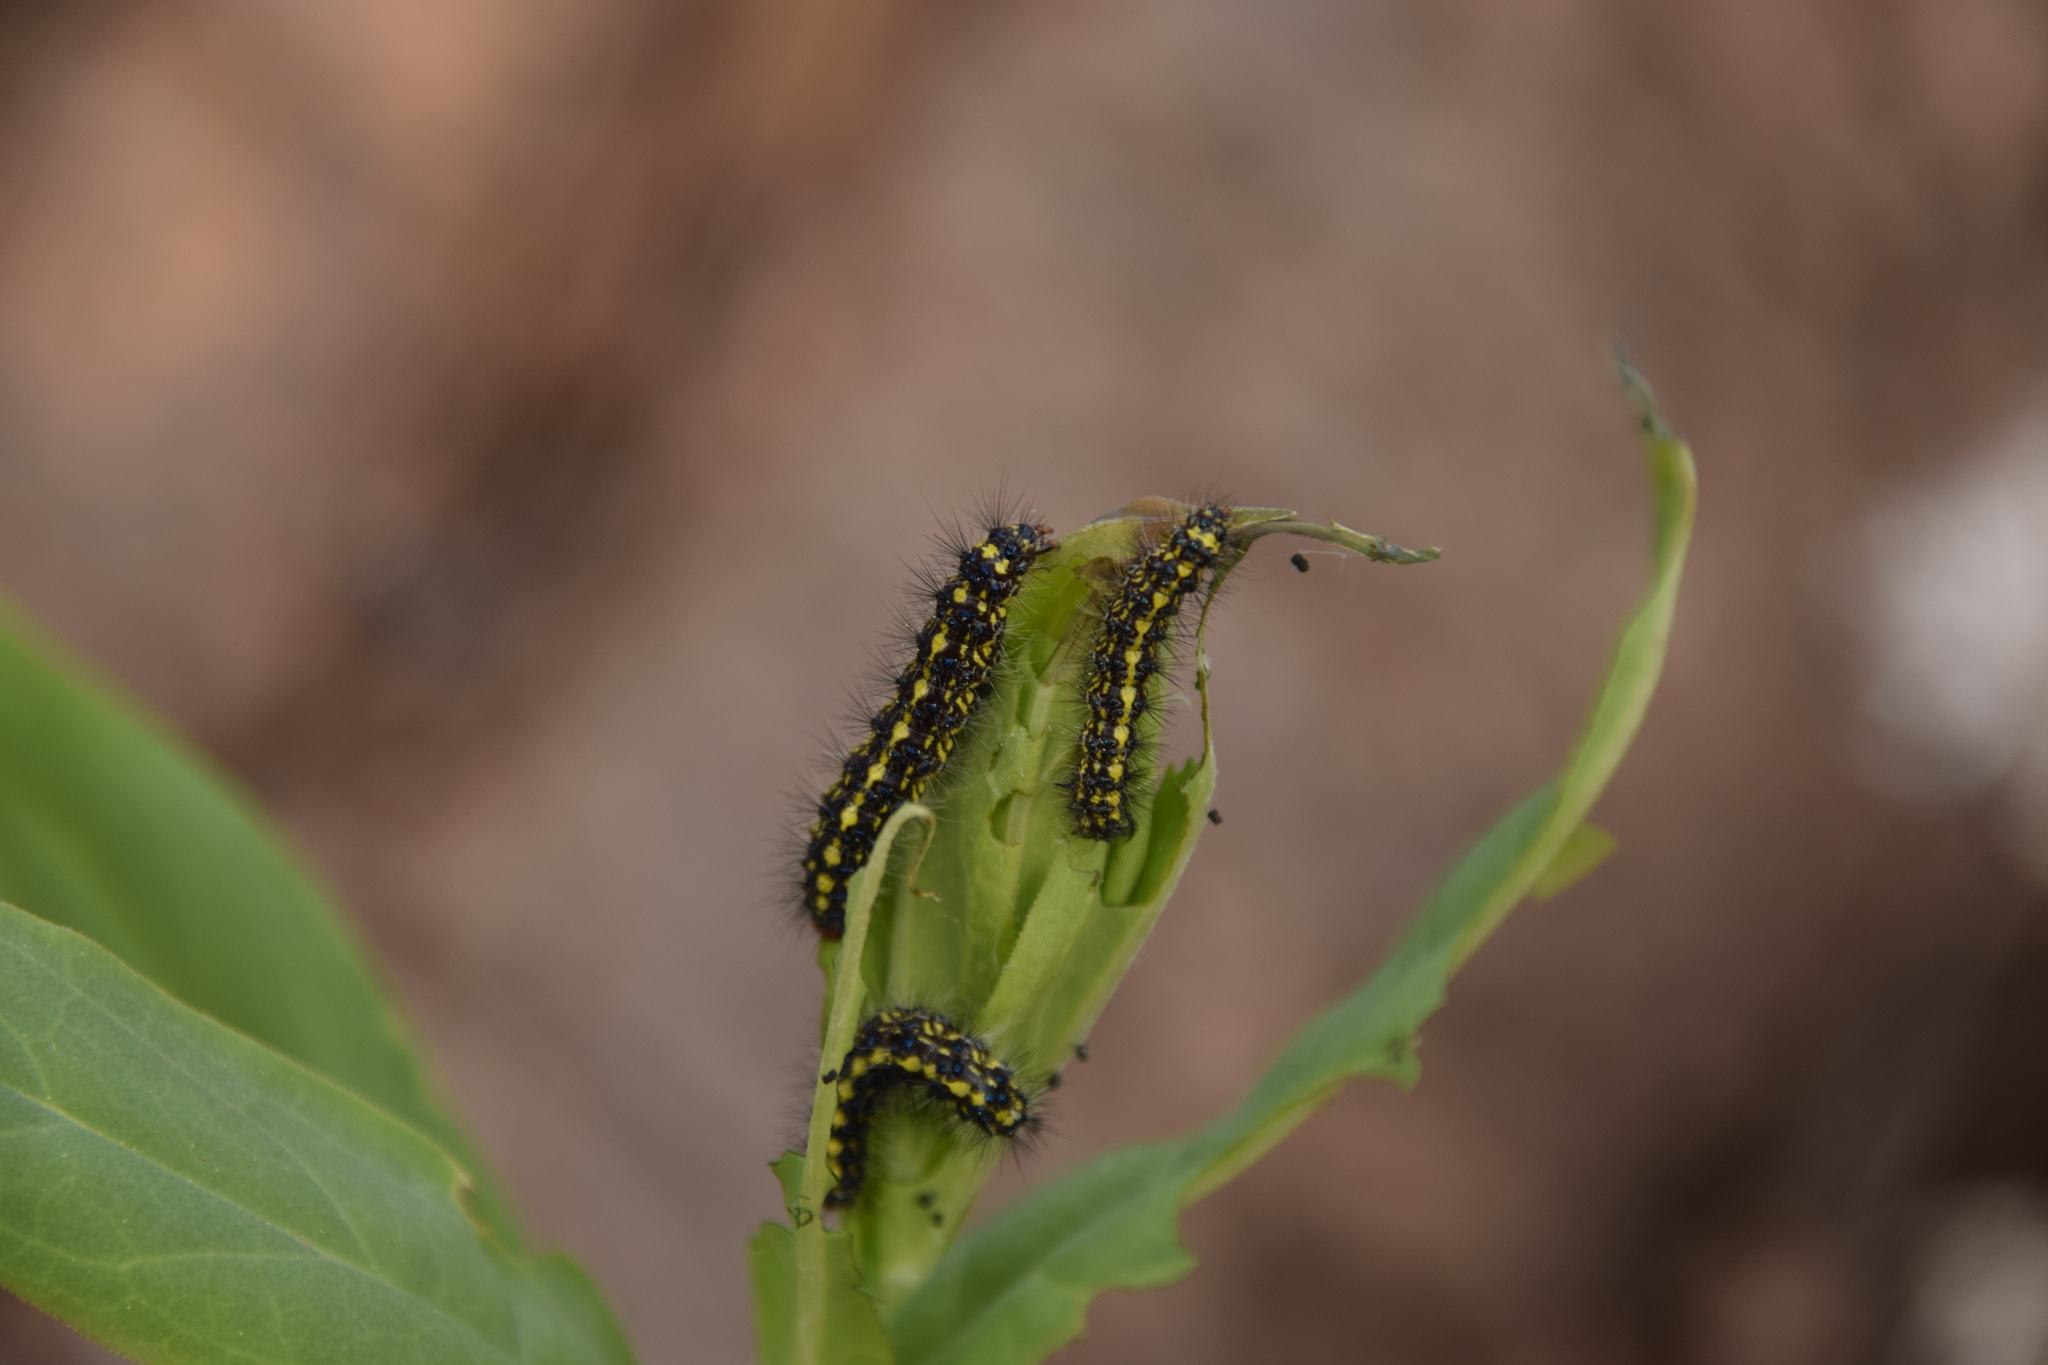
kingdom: Animalia
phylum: Arthropoda
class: Insecta
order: Lepidoptera
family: Erebidae
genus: Gnophaela
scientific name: Gnophaela vermiculata
